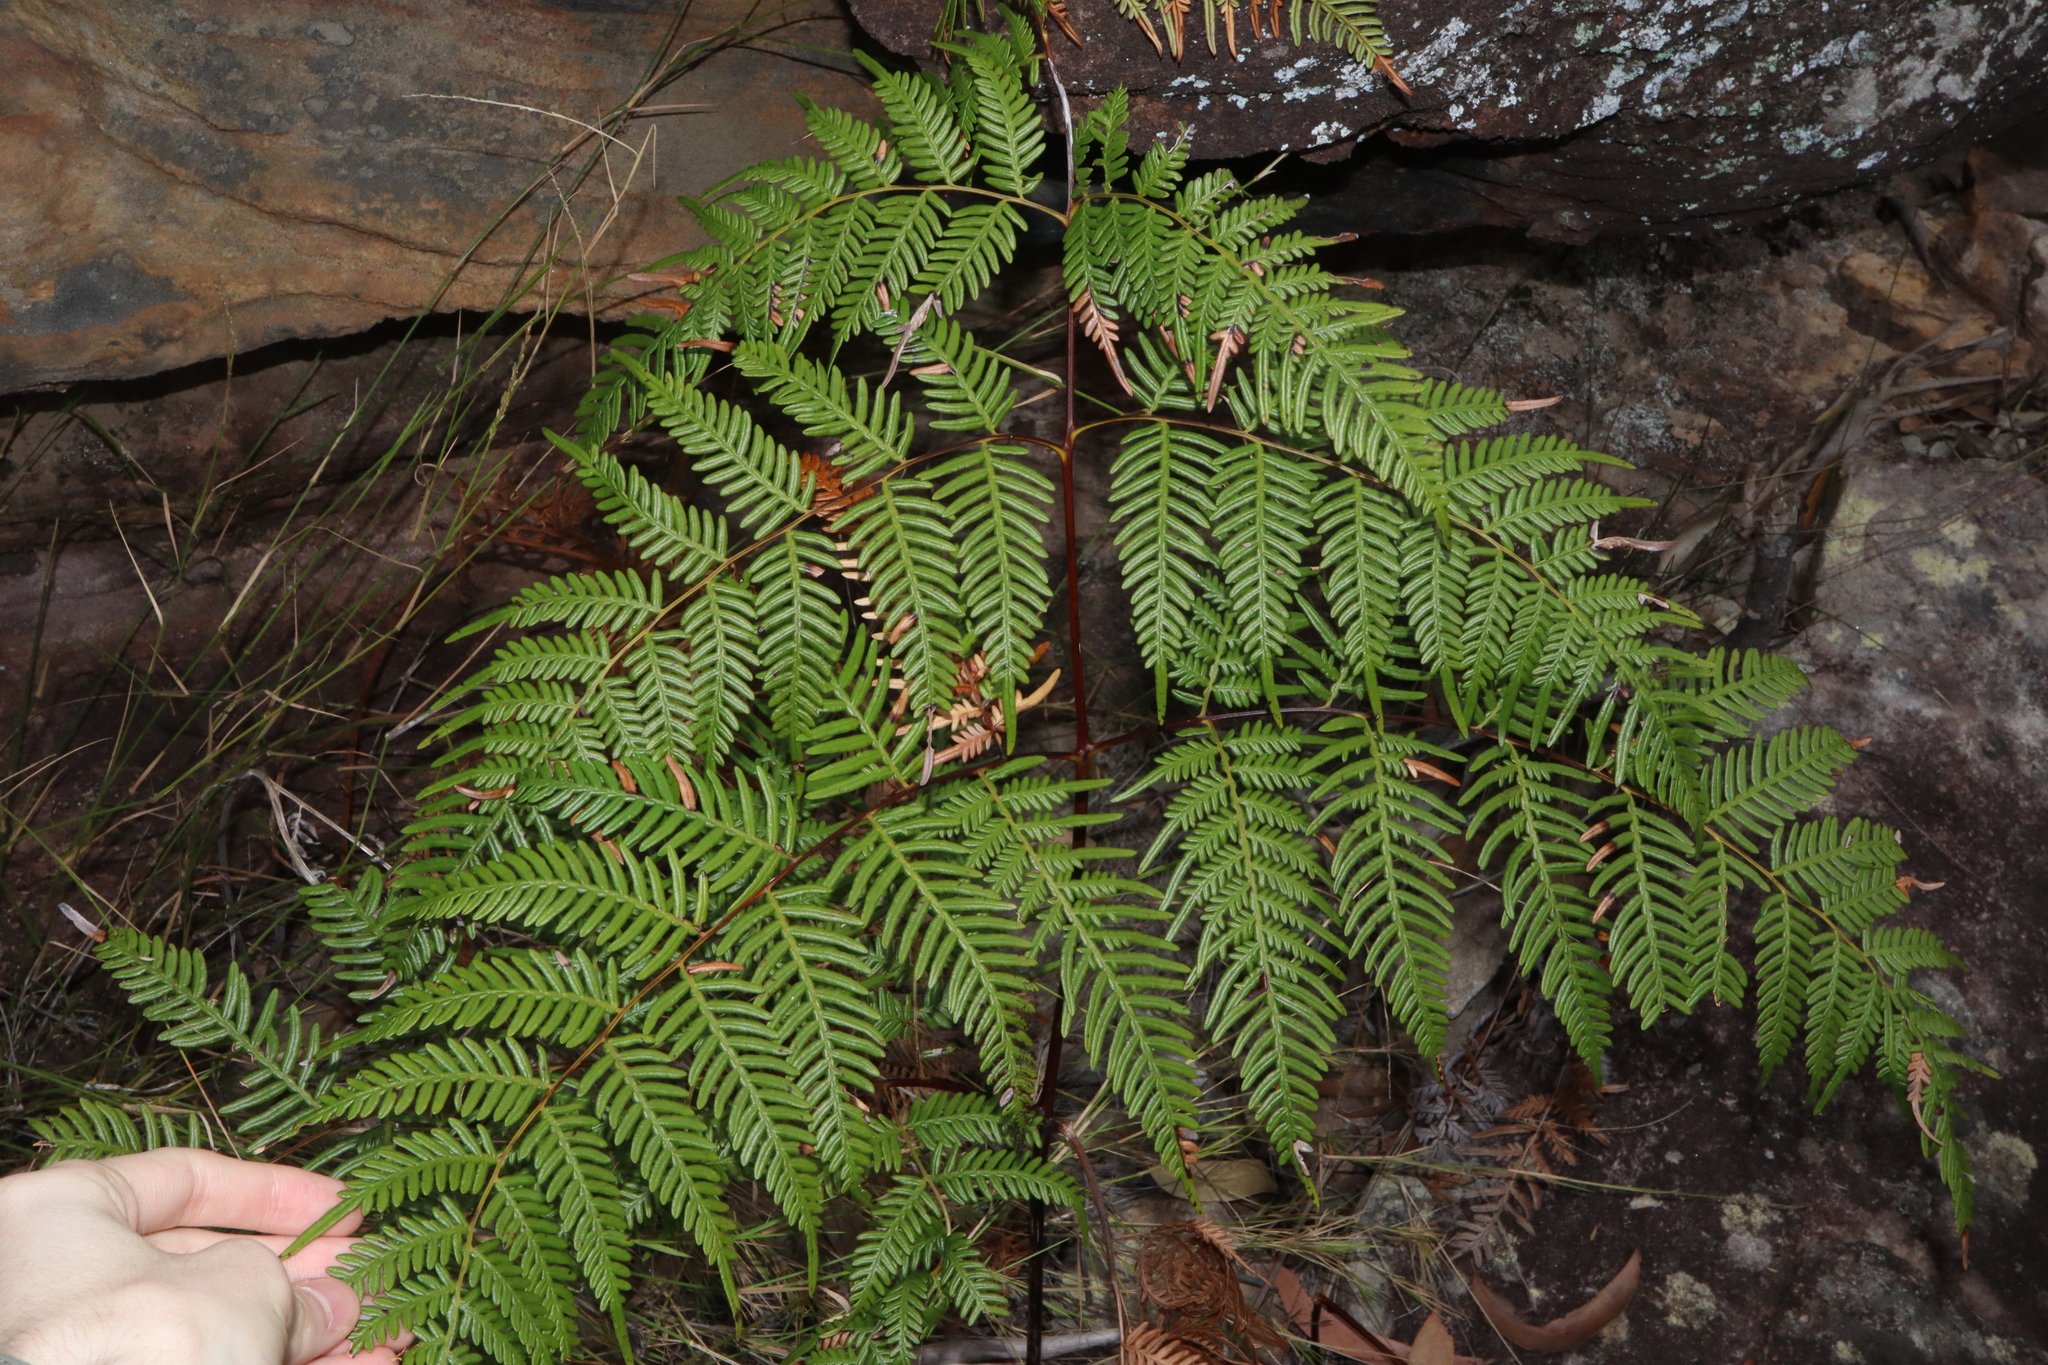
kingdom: Plantae
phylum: Tracheophyta
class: Polypodiopsida
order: Polypodiales
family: Dennstaedtiaceae
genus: Pteridium
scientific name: Pteridium esculentum
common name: Bracken fern
